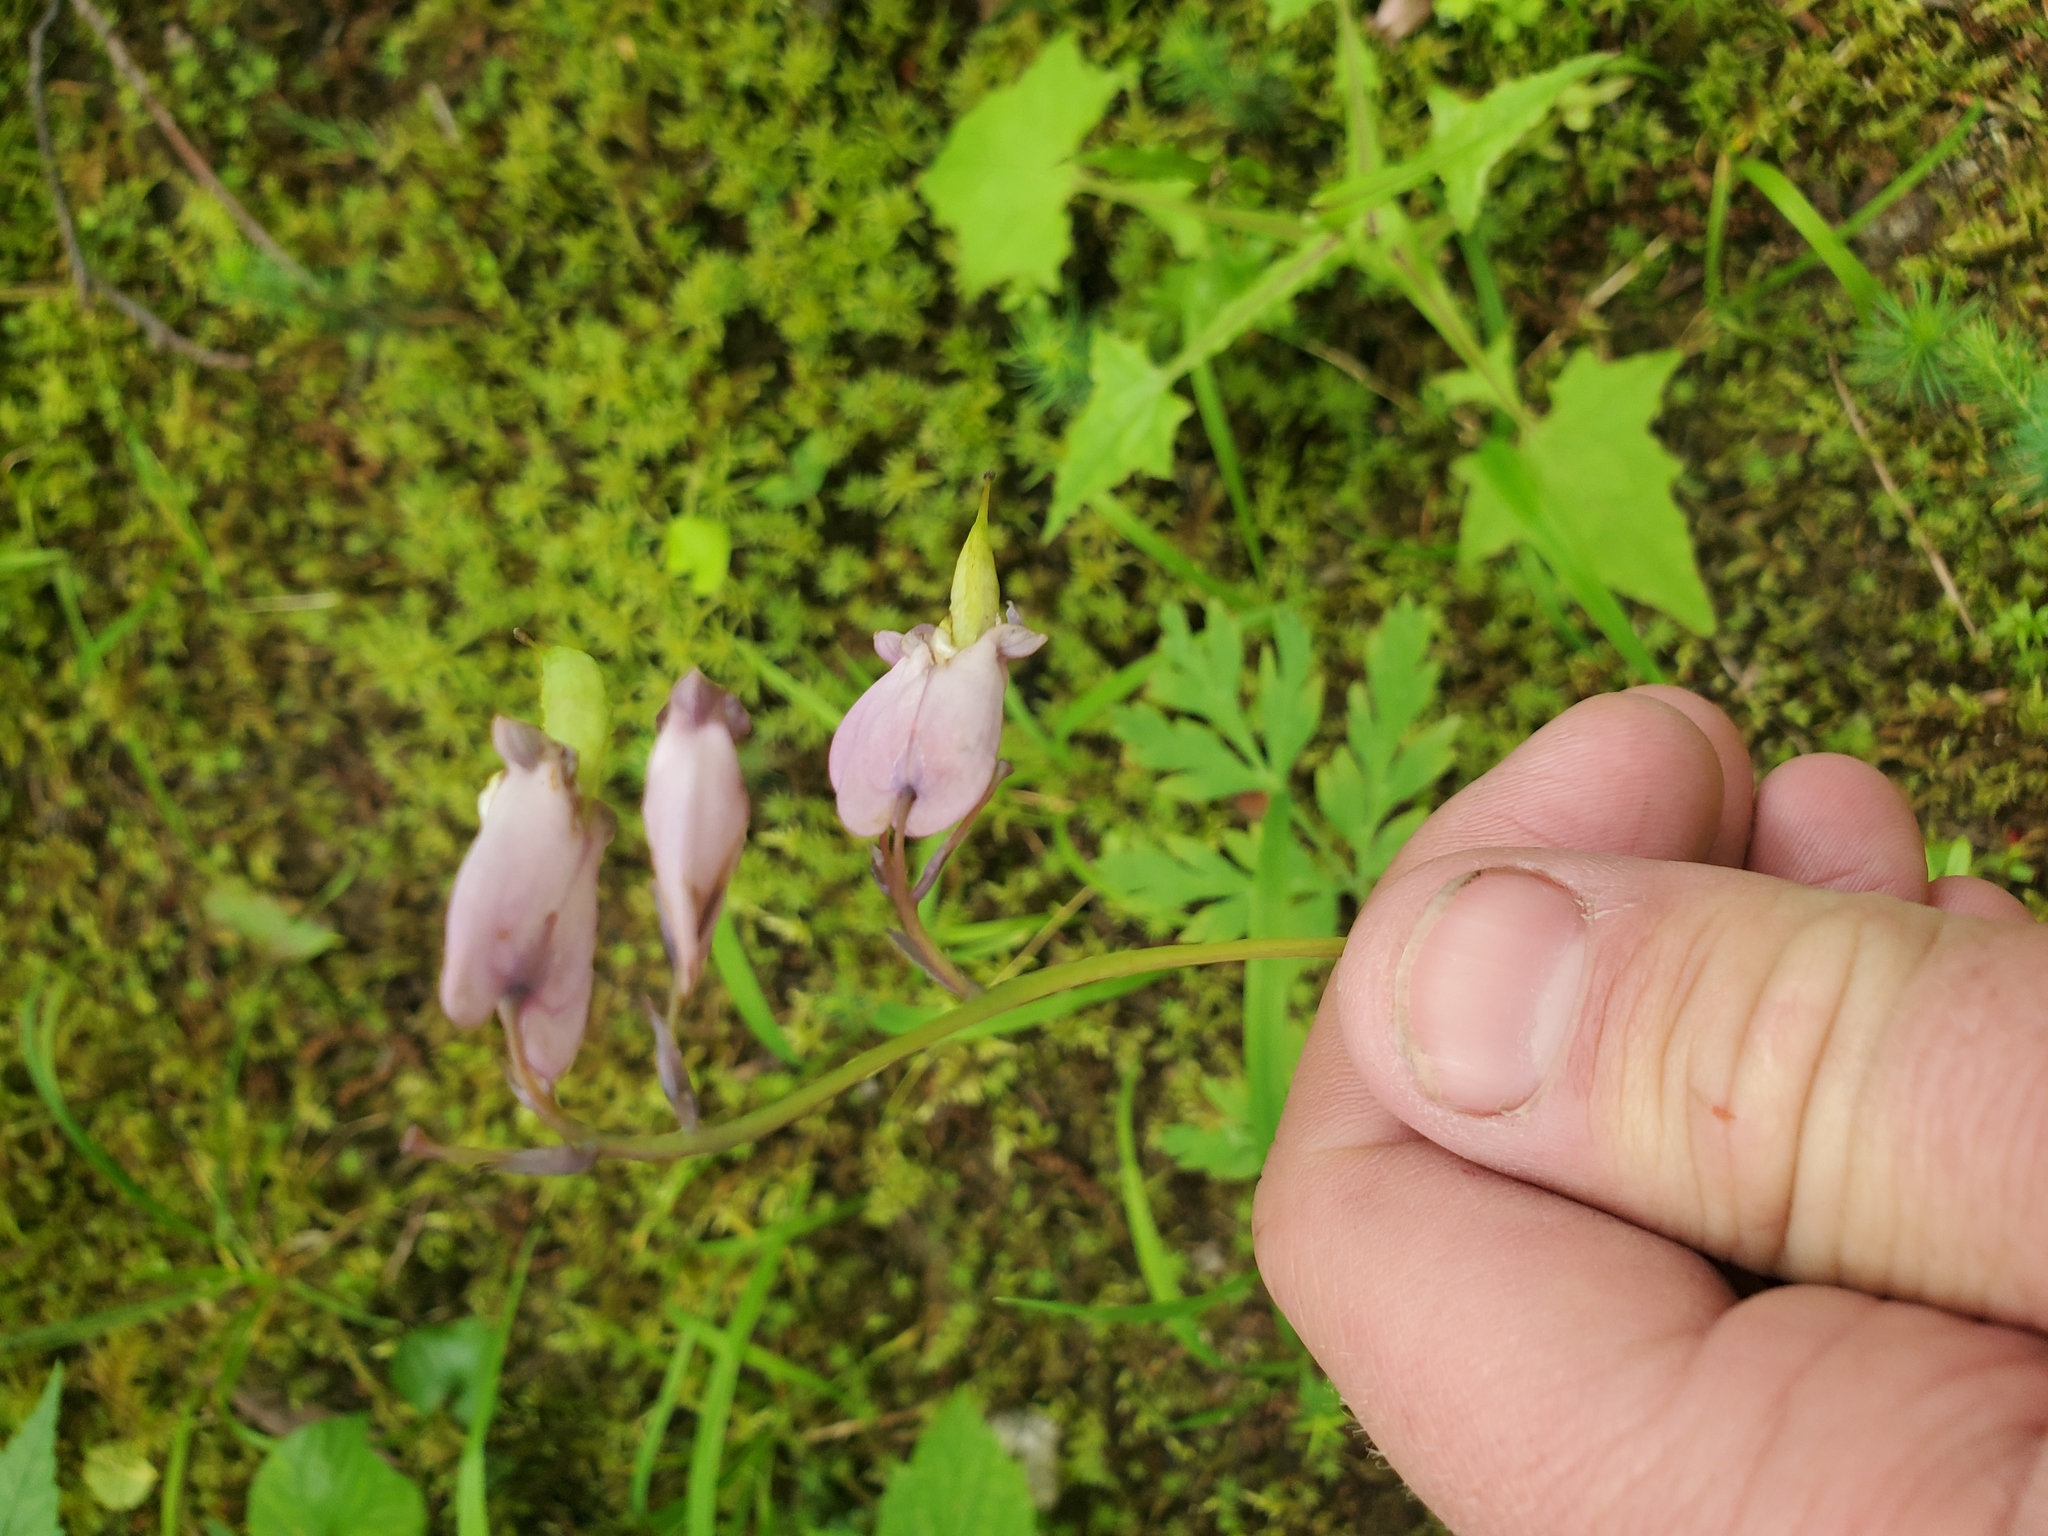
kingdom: Plantae
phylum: Tracheophyta
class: Magnoliopsida
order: Ranunculales
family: Papaveraceae
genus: Dicentra
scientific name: Dicentra formosa
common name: Bleeding-heart
